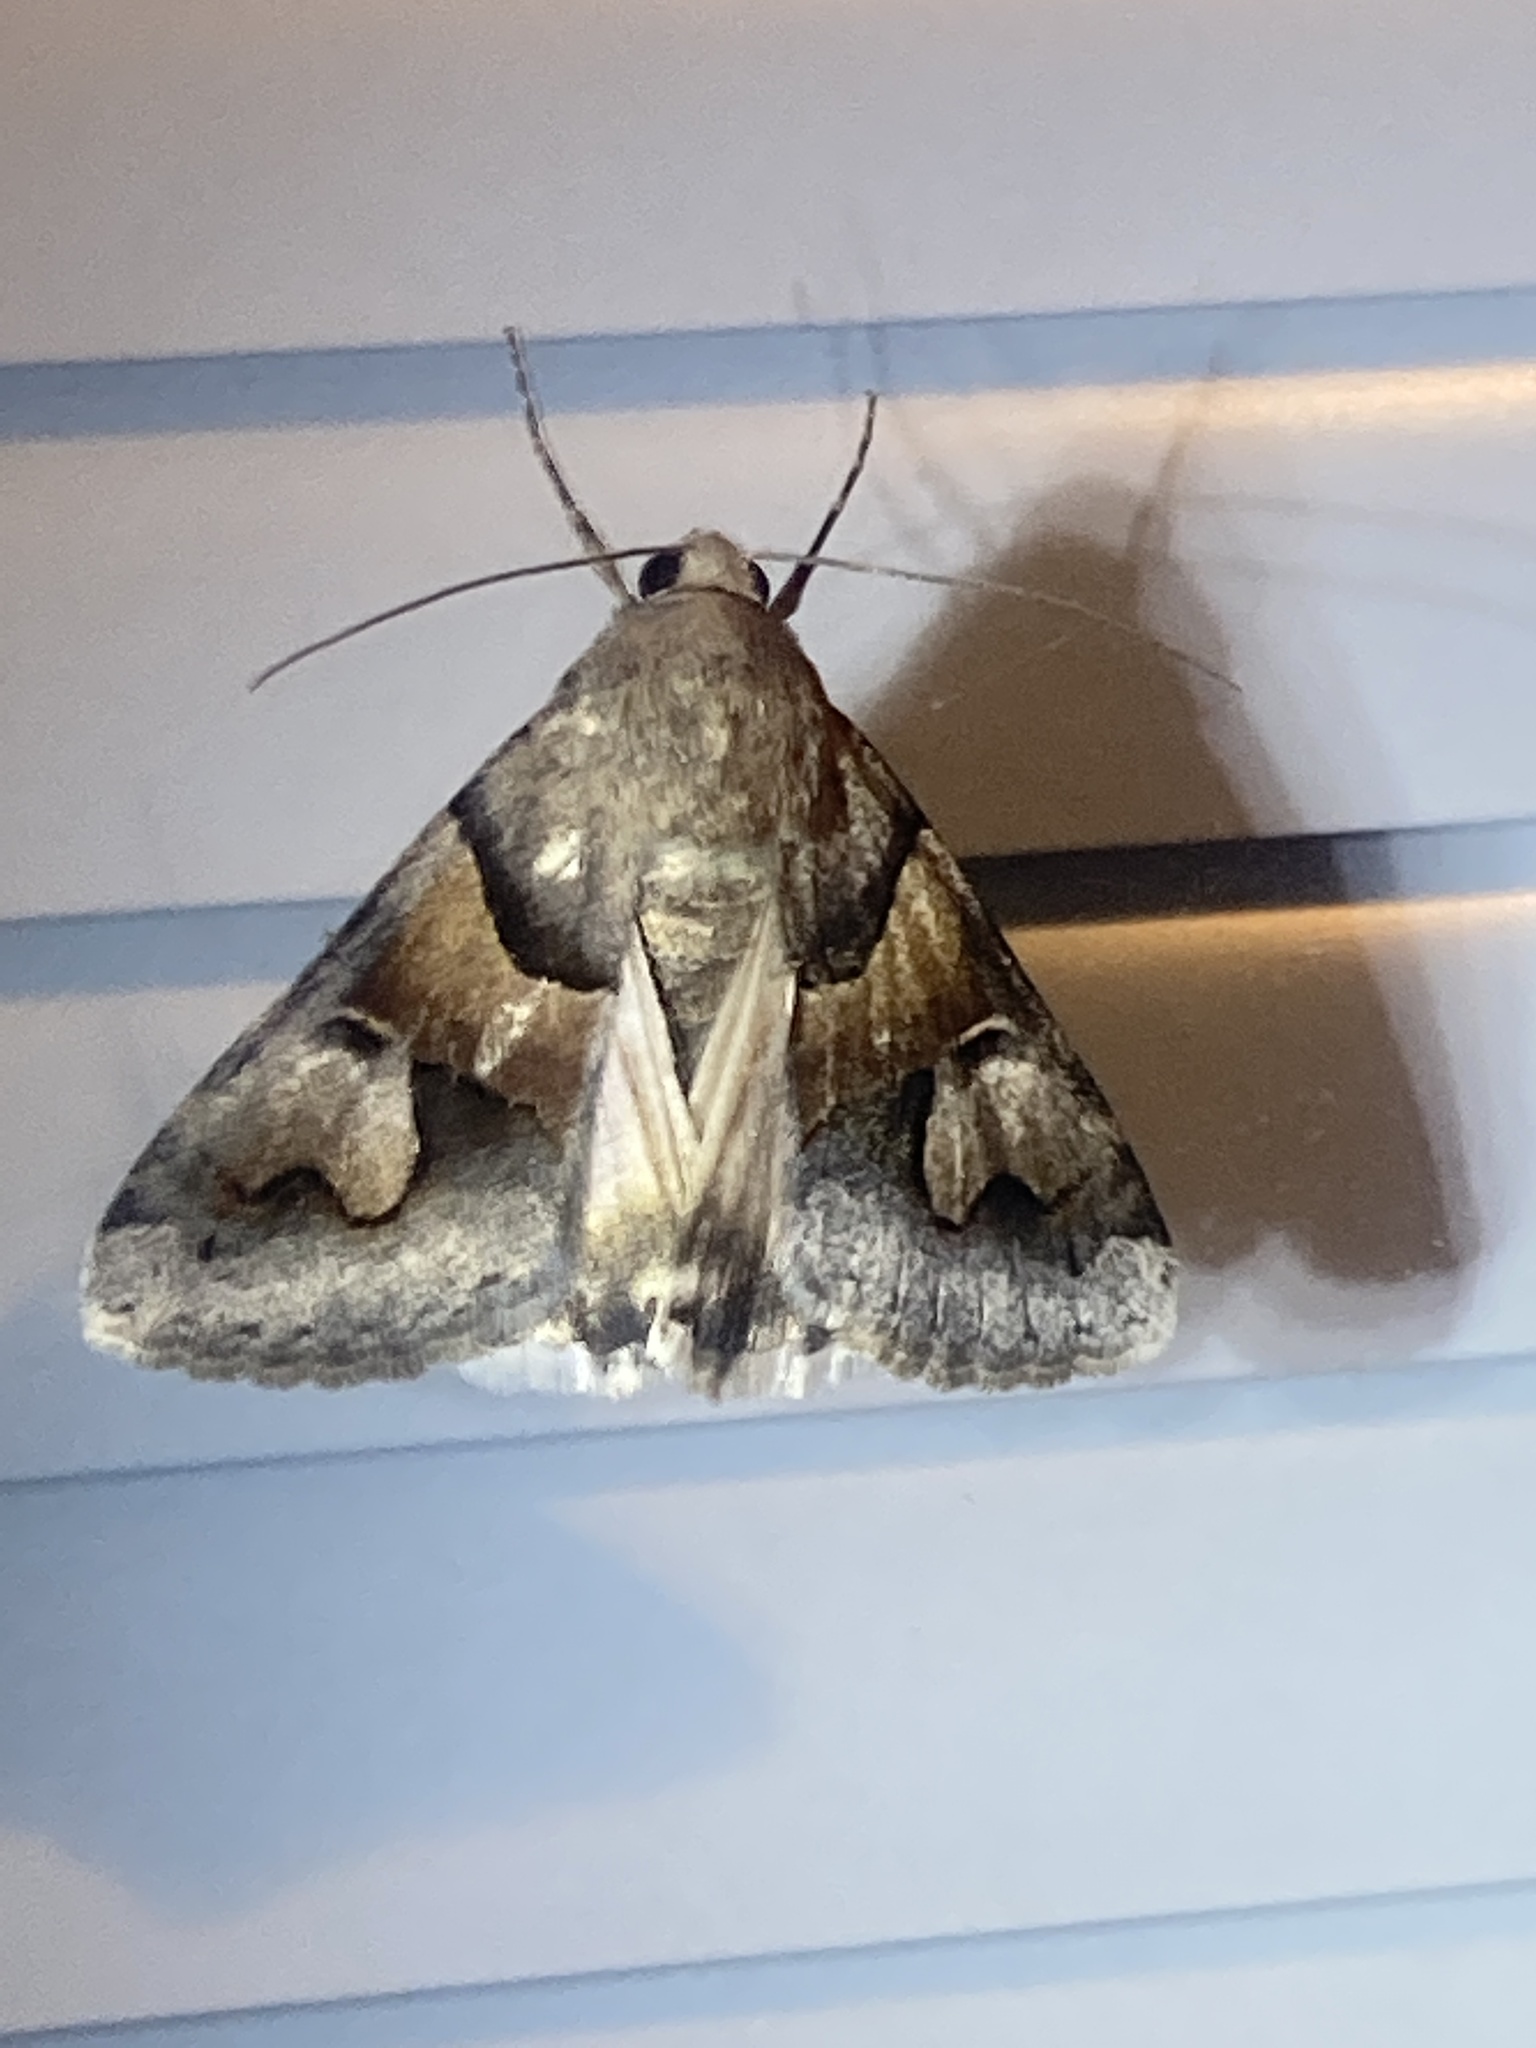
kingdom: Animalia
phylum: Arthropoda
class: Insecta
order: Lepidoptera
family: Erebidae
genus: Drasteria
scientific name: Drasteria pallescens
